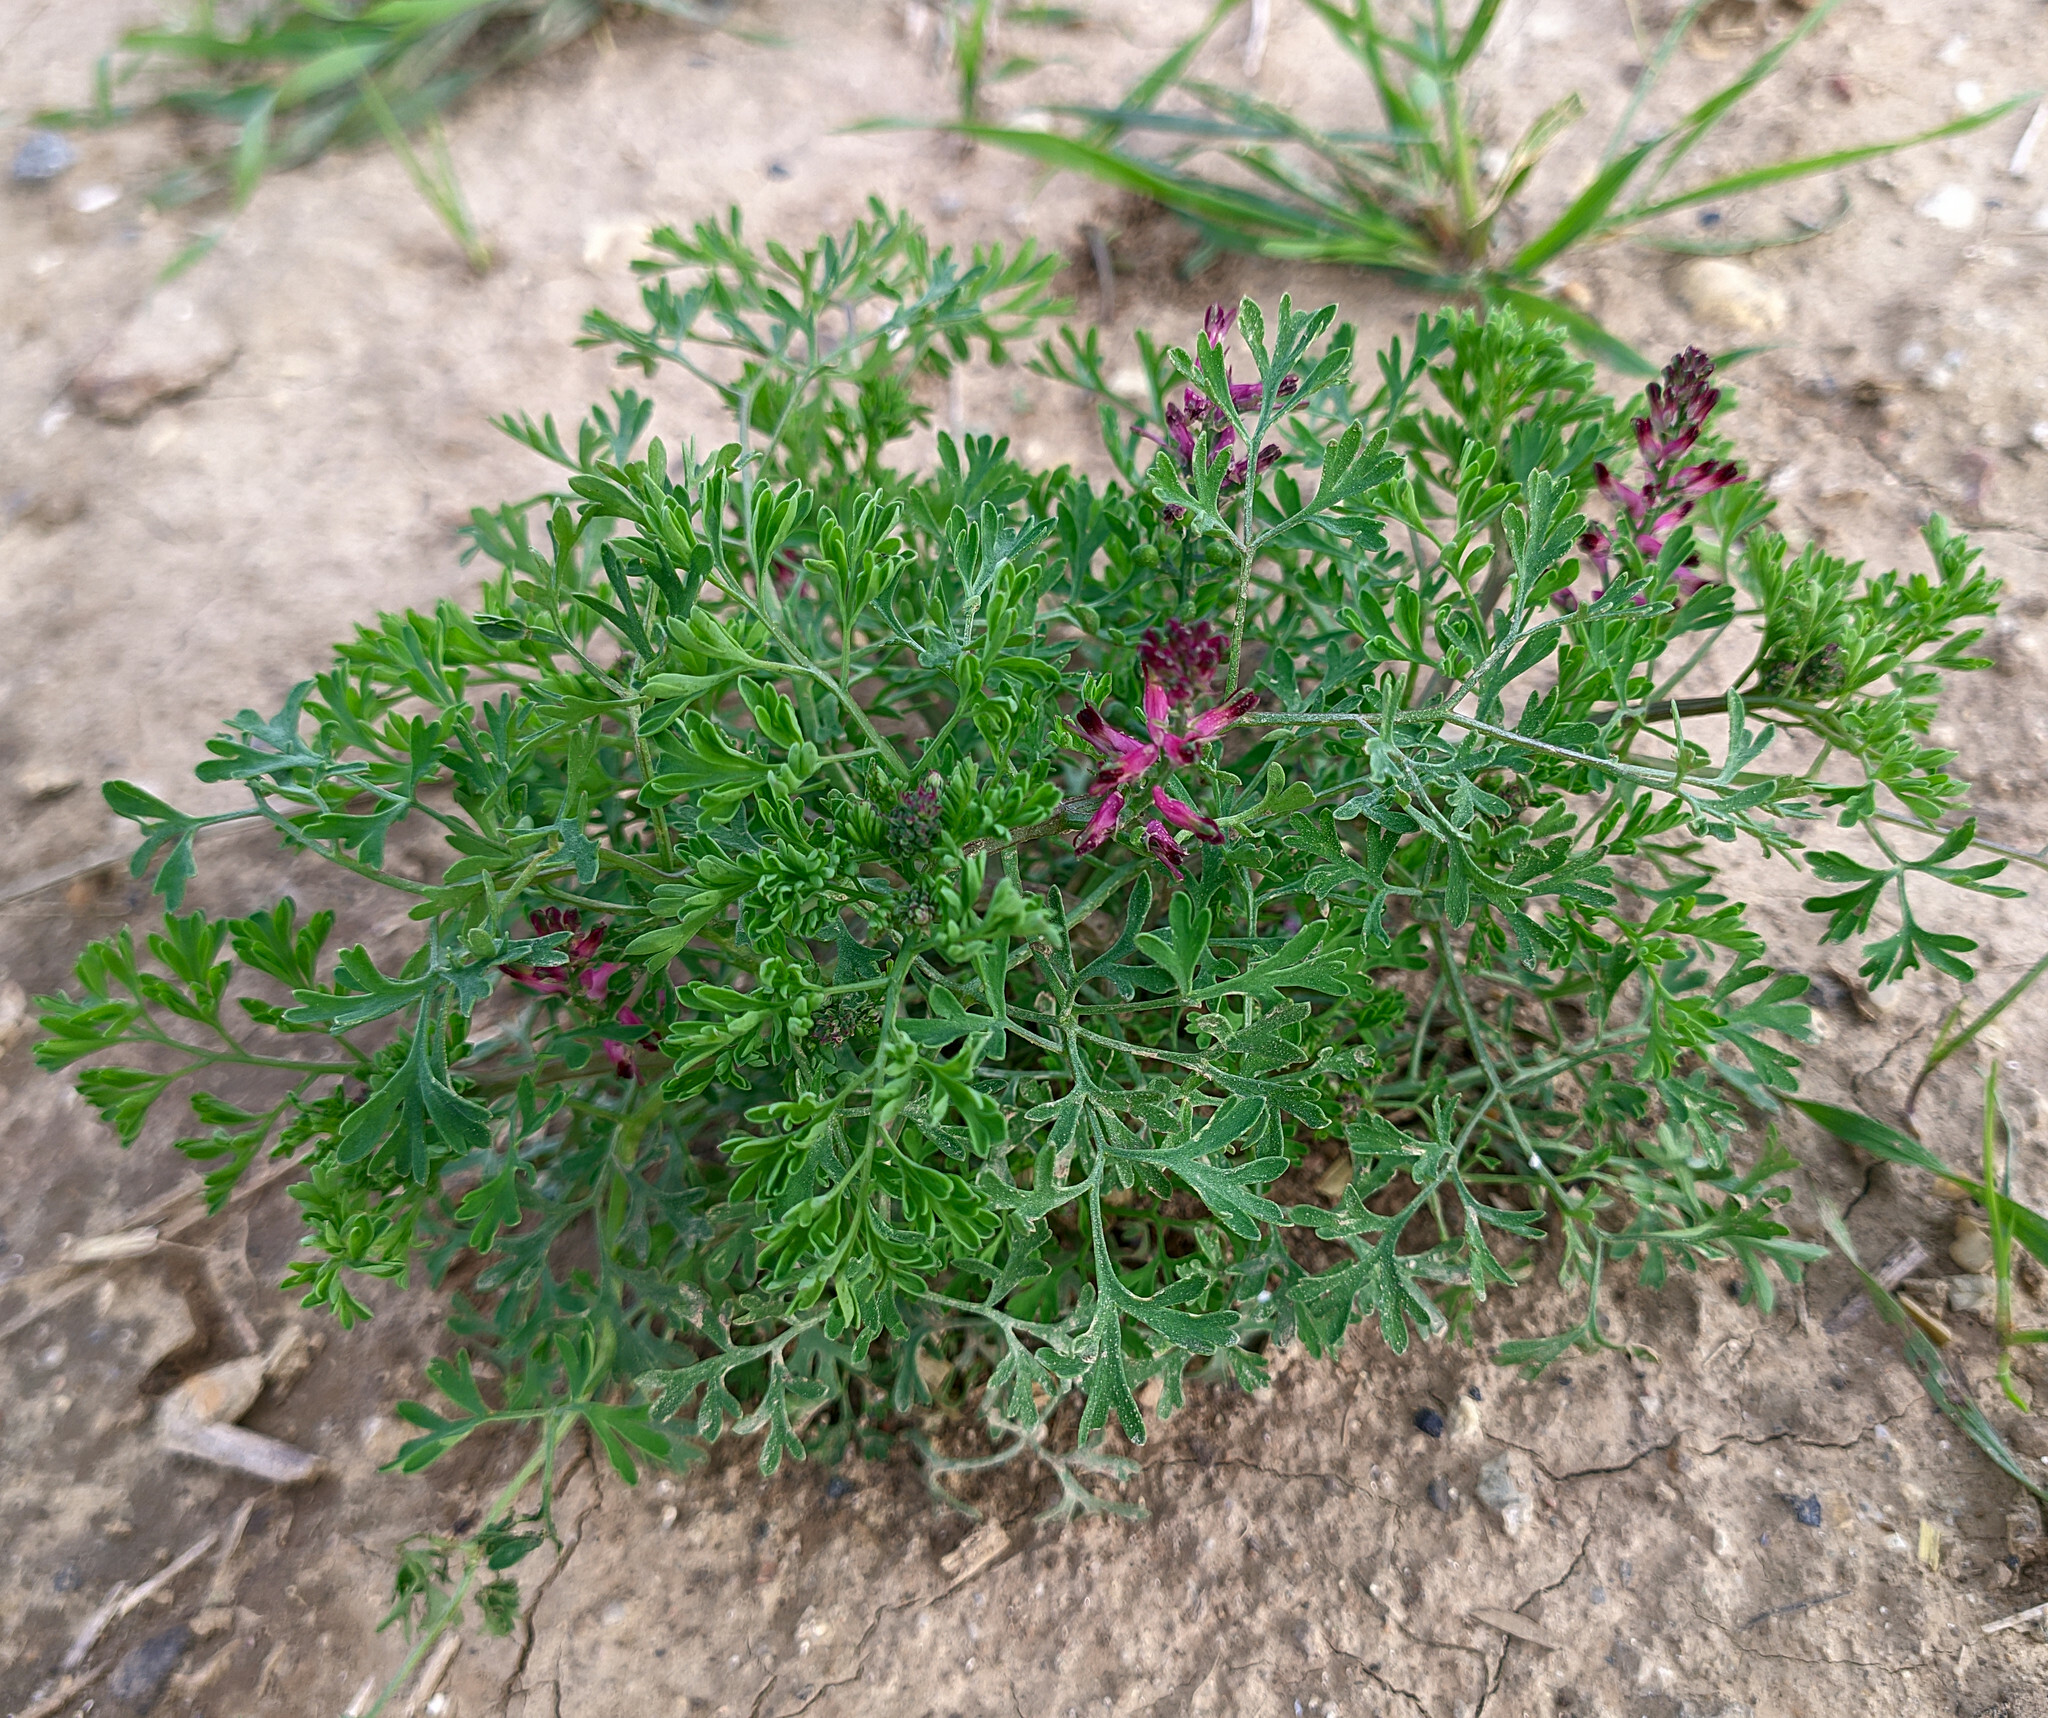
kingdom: Plantae
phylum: Tracheophyta
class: Magnoliopsida
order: Ranunculales
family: Papaveraceae
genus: Fumaria
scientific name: Fumaria officinalis
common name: Common fumitory
